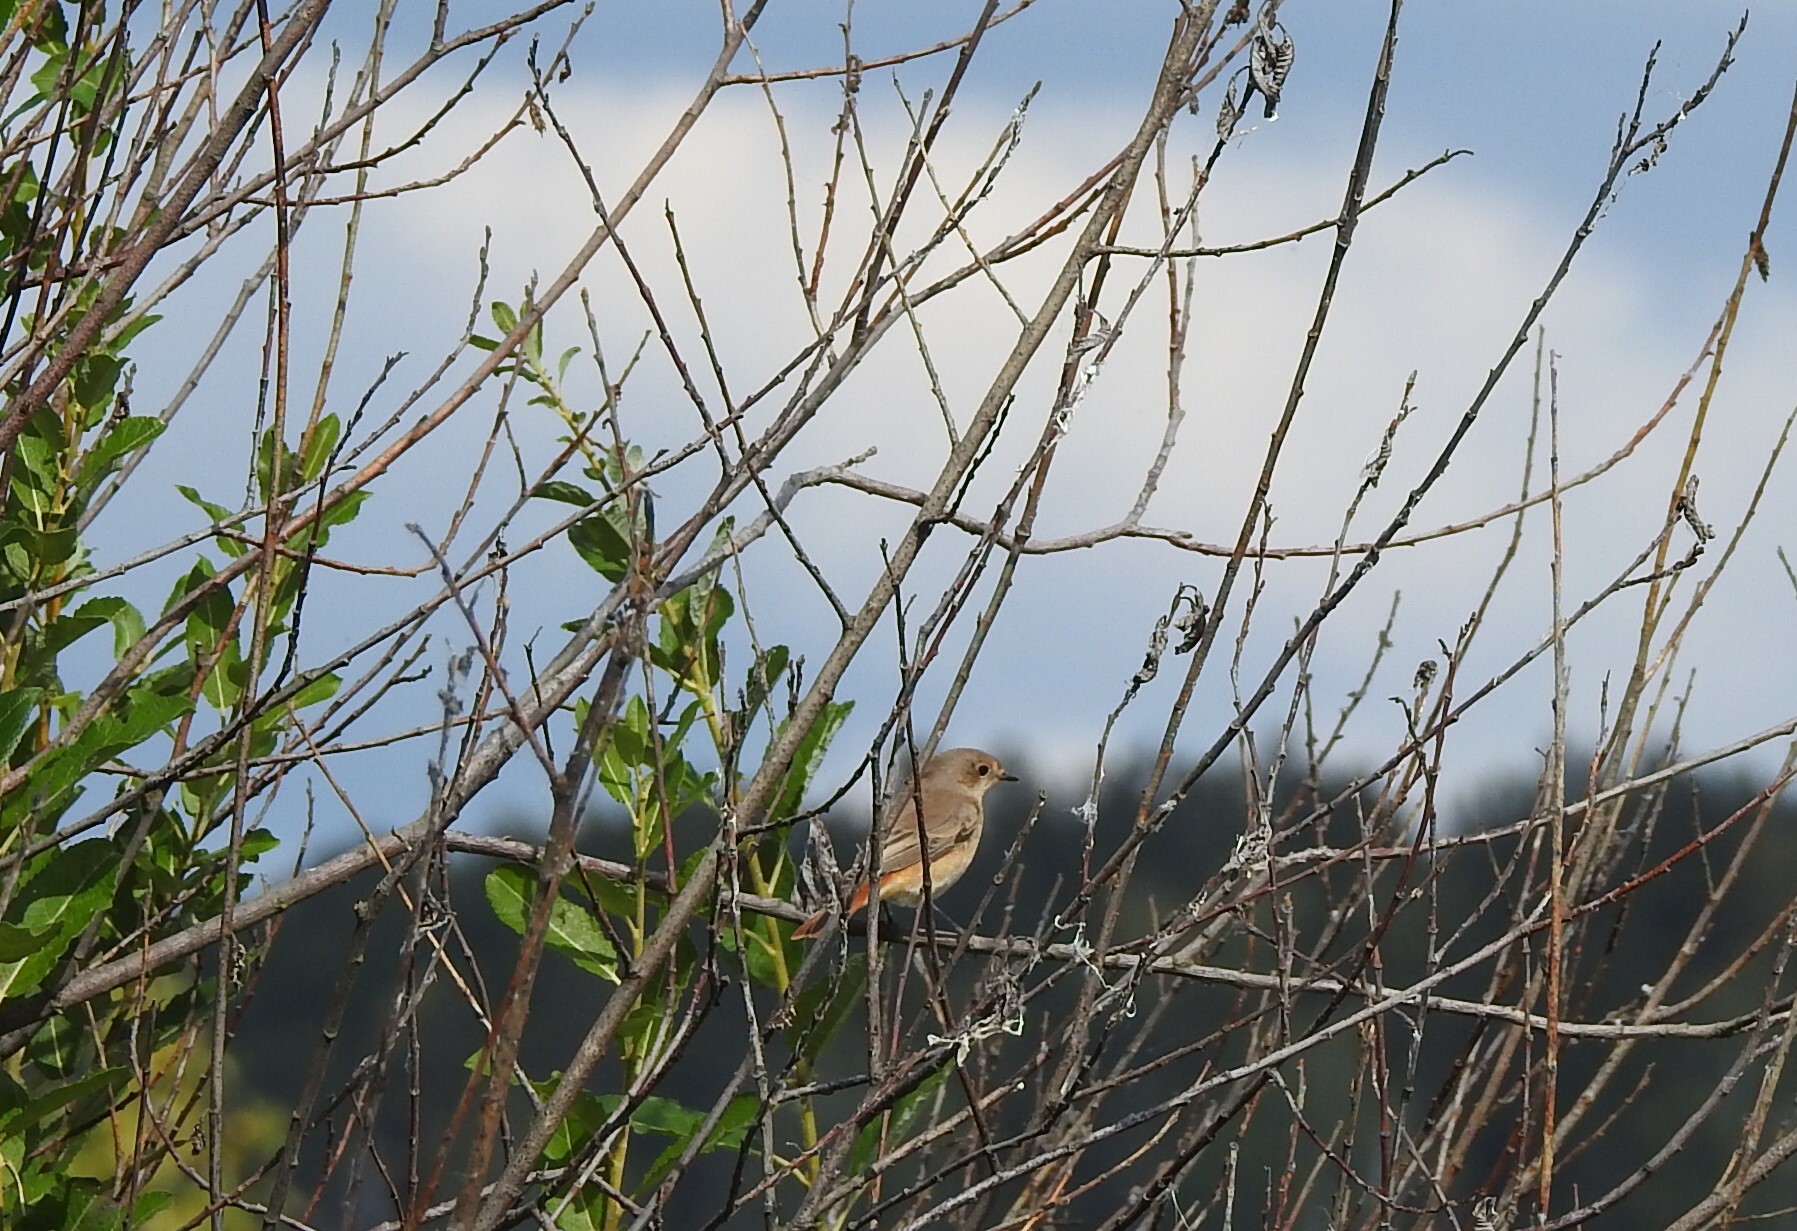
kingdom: Animalia
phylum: Chordata
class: Aves
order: Passeriformes
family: Muscicapidae
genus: Phoenicurus
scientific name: Phoenicurus phoenicurus
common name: Common redstart
